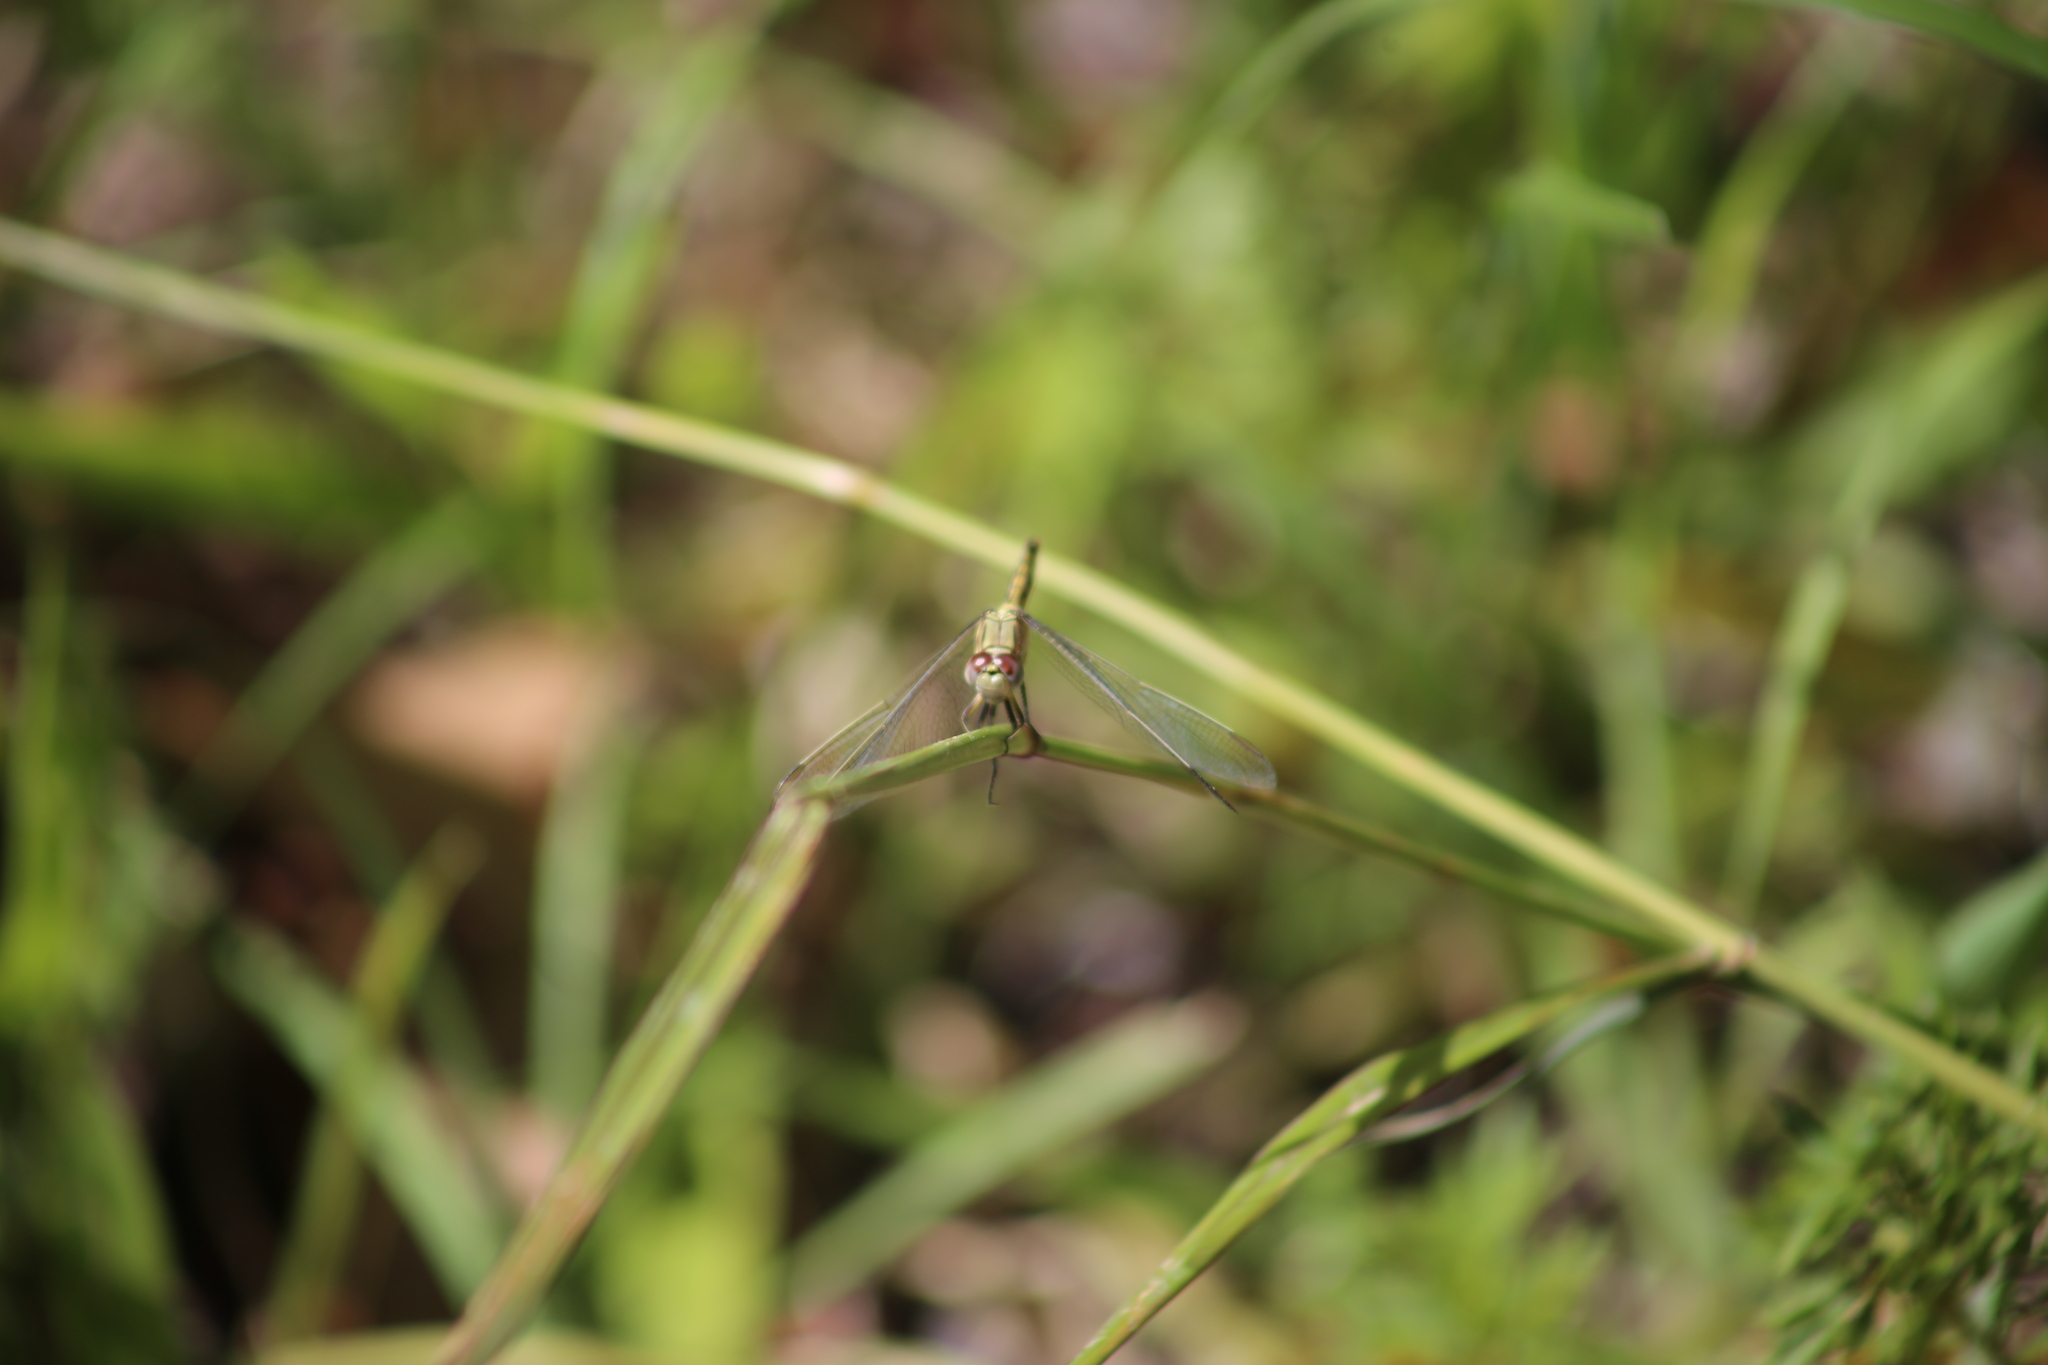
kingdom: Animalia
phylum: Arthropoda
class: Insecta
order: Odonata
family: Libellulidae
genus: Orthetrum
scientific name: Orthetrum caledonicum
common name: Blue skimmer
